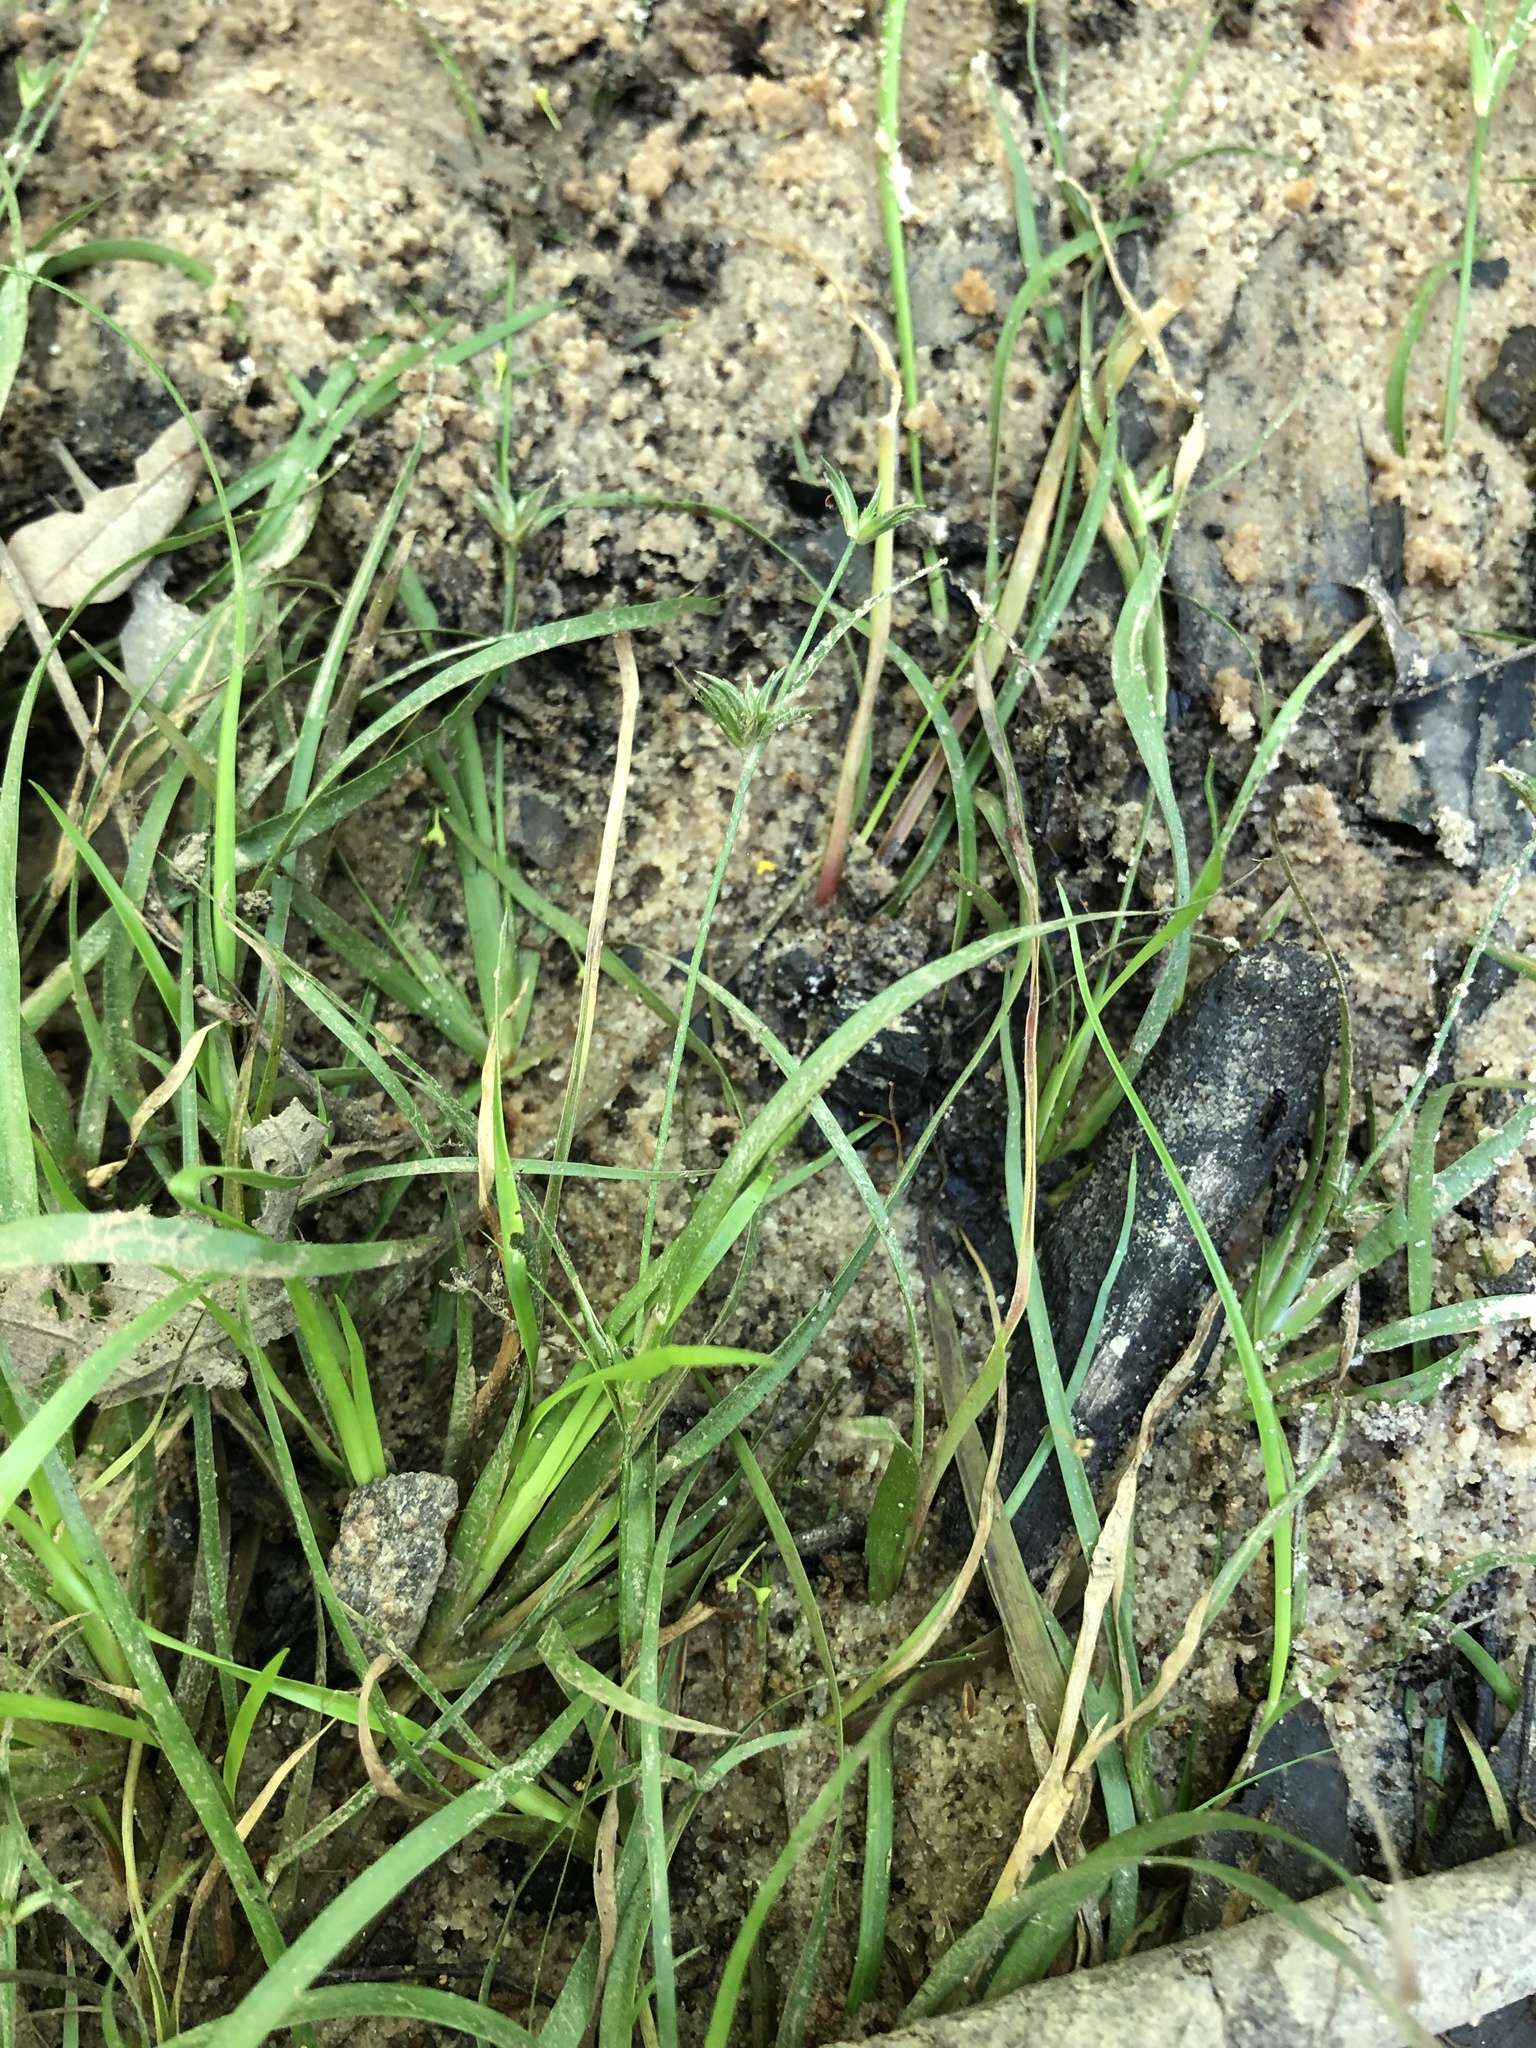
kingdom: Plantae
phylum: Tracheophyta
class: Liliopsida
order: Poales
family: Juncaceae
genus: Juncus
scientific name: Juncus repens
